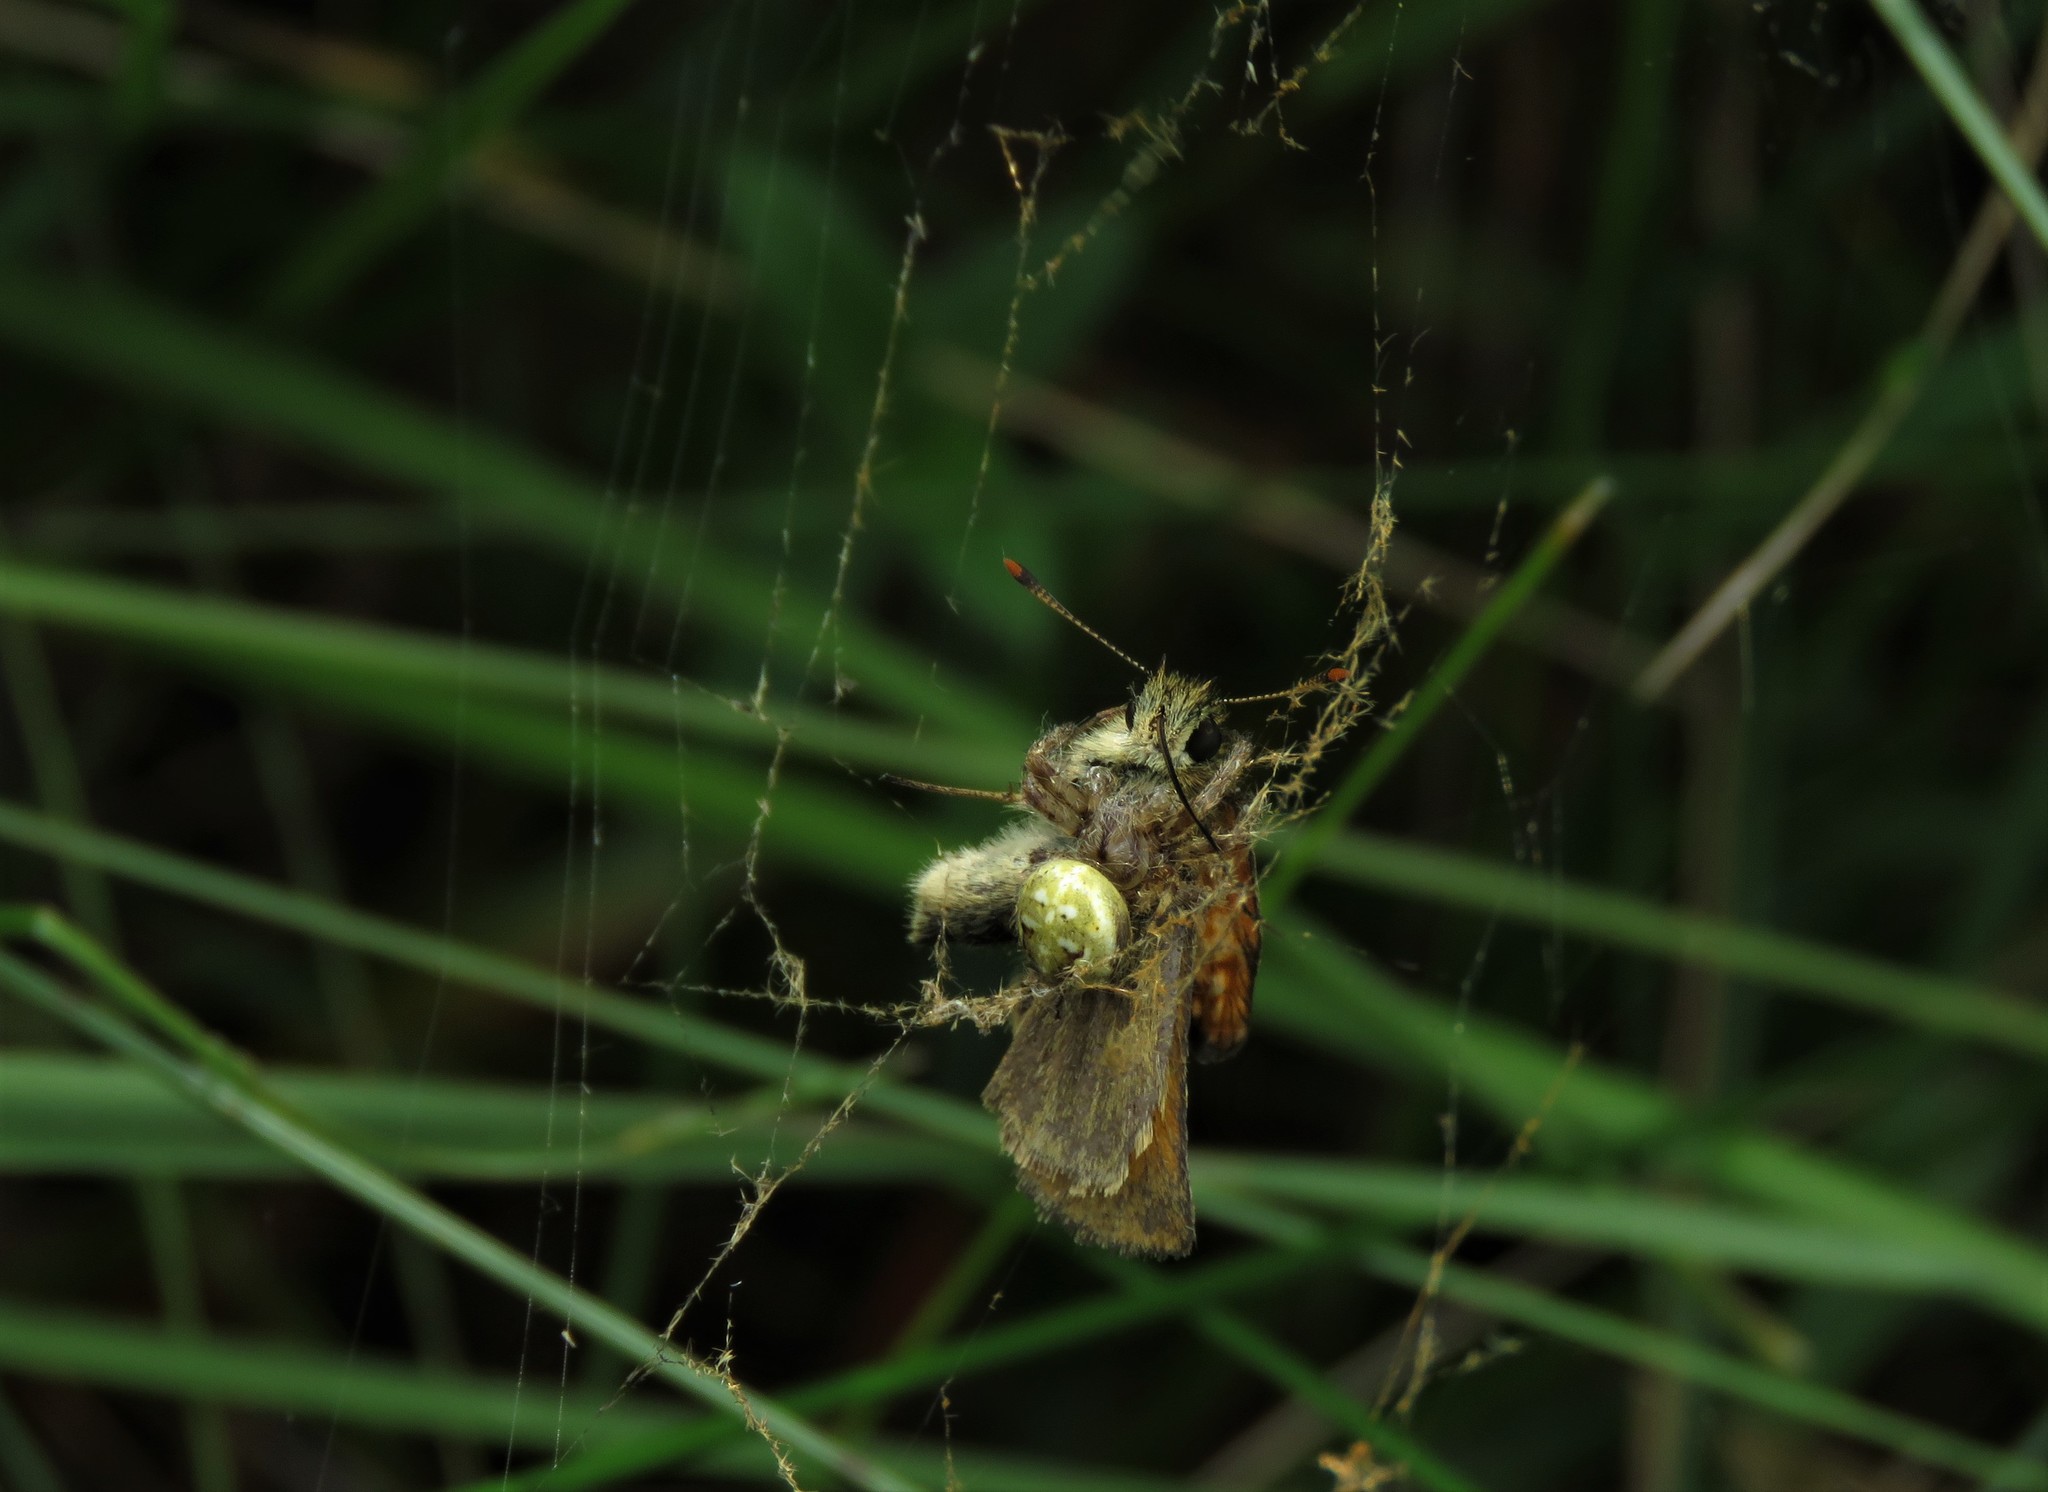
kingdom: Animalia
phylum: Arthropoda
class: Arachnida
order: Araneae
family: Araneidae
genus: Araneus
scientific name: Araneus quadratus
